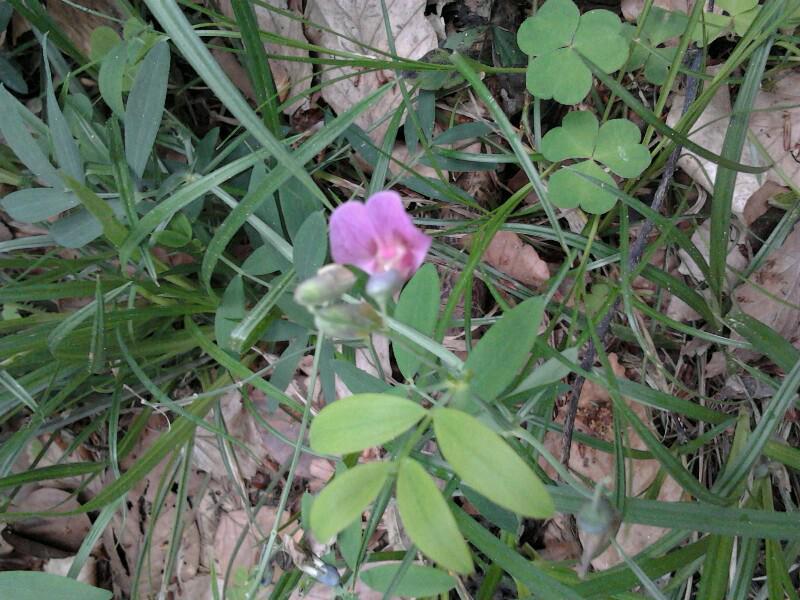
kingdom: Plantae
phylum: Tracheophyta
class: Magnoliopsida
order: Fabales
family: Fabaceae
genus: Lathyrus
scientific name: Lathyrus linifolius
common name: Bitter-vetch
